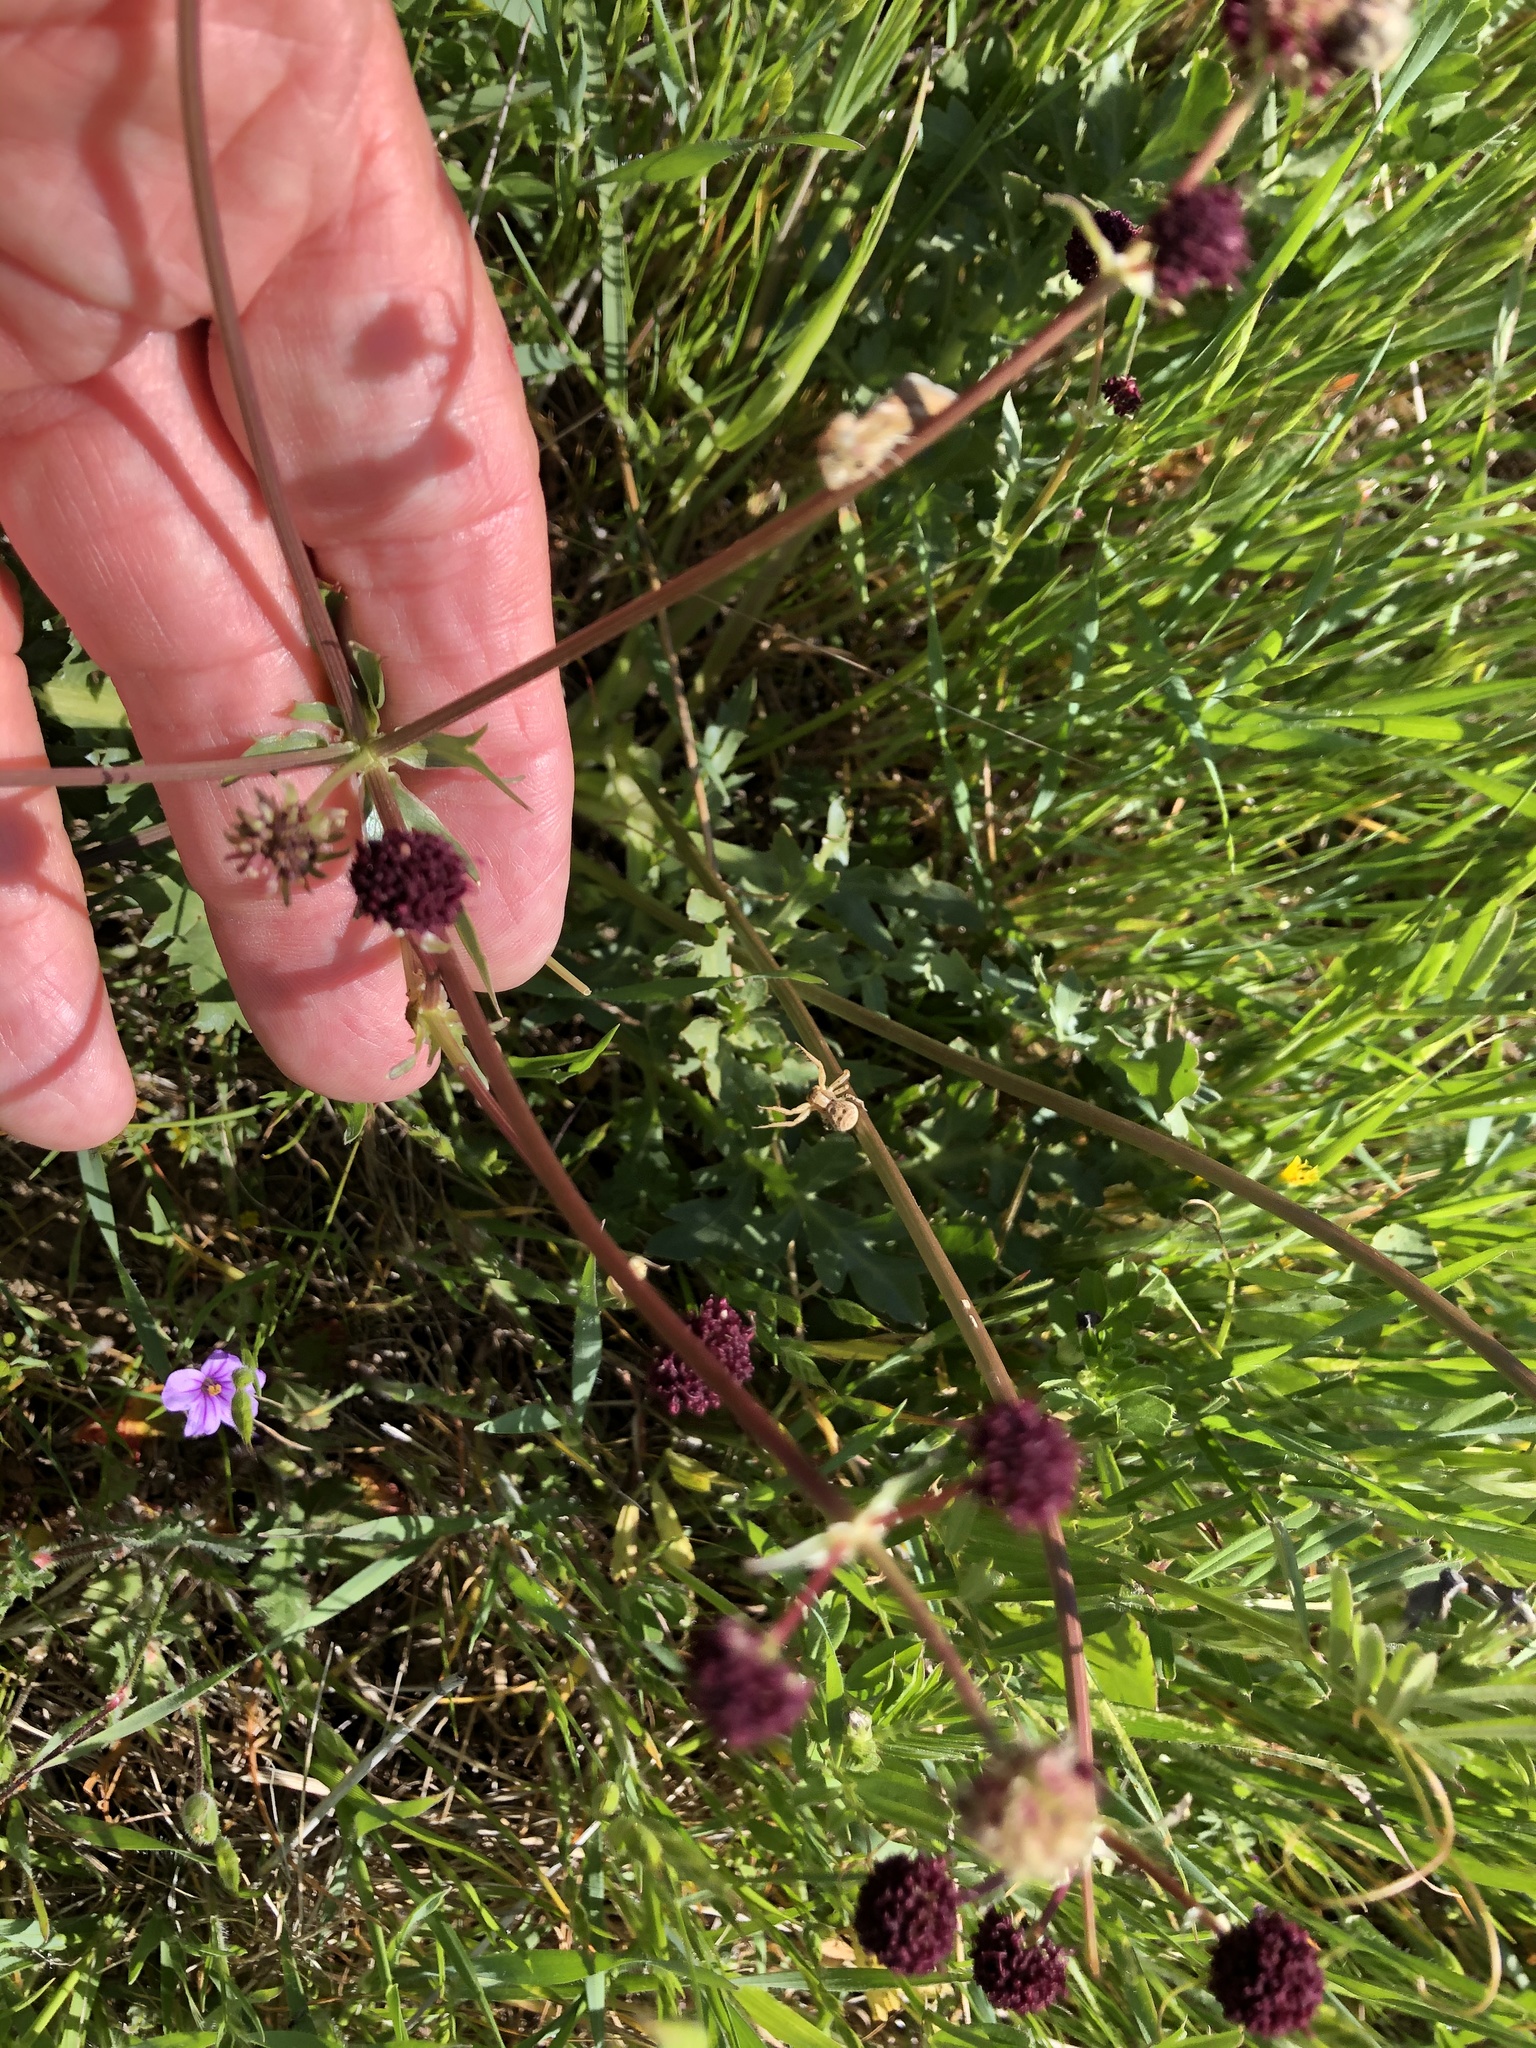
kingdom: Plantae
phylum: Tracheophyta
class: Magnoliopsida
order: Apiales
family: Apiaceae
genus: Sanicula
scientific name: Sanicula bipinnatifida
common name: Shoe-buttons
